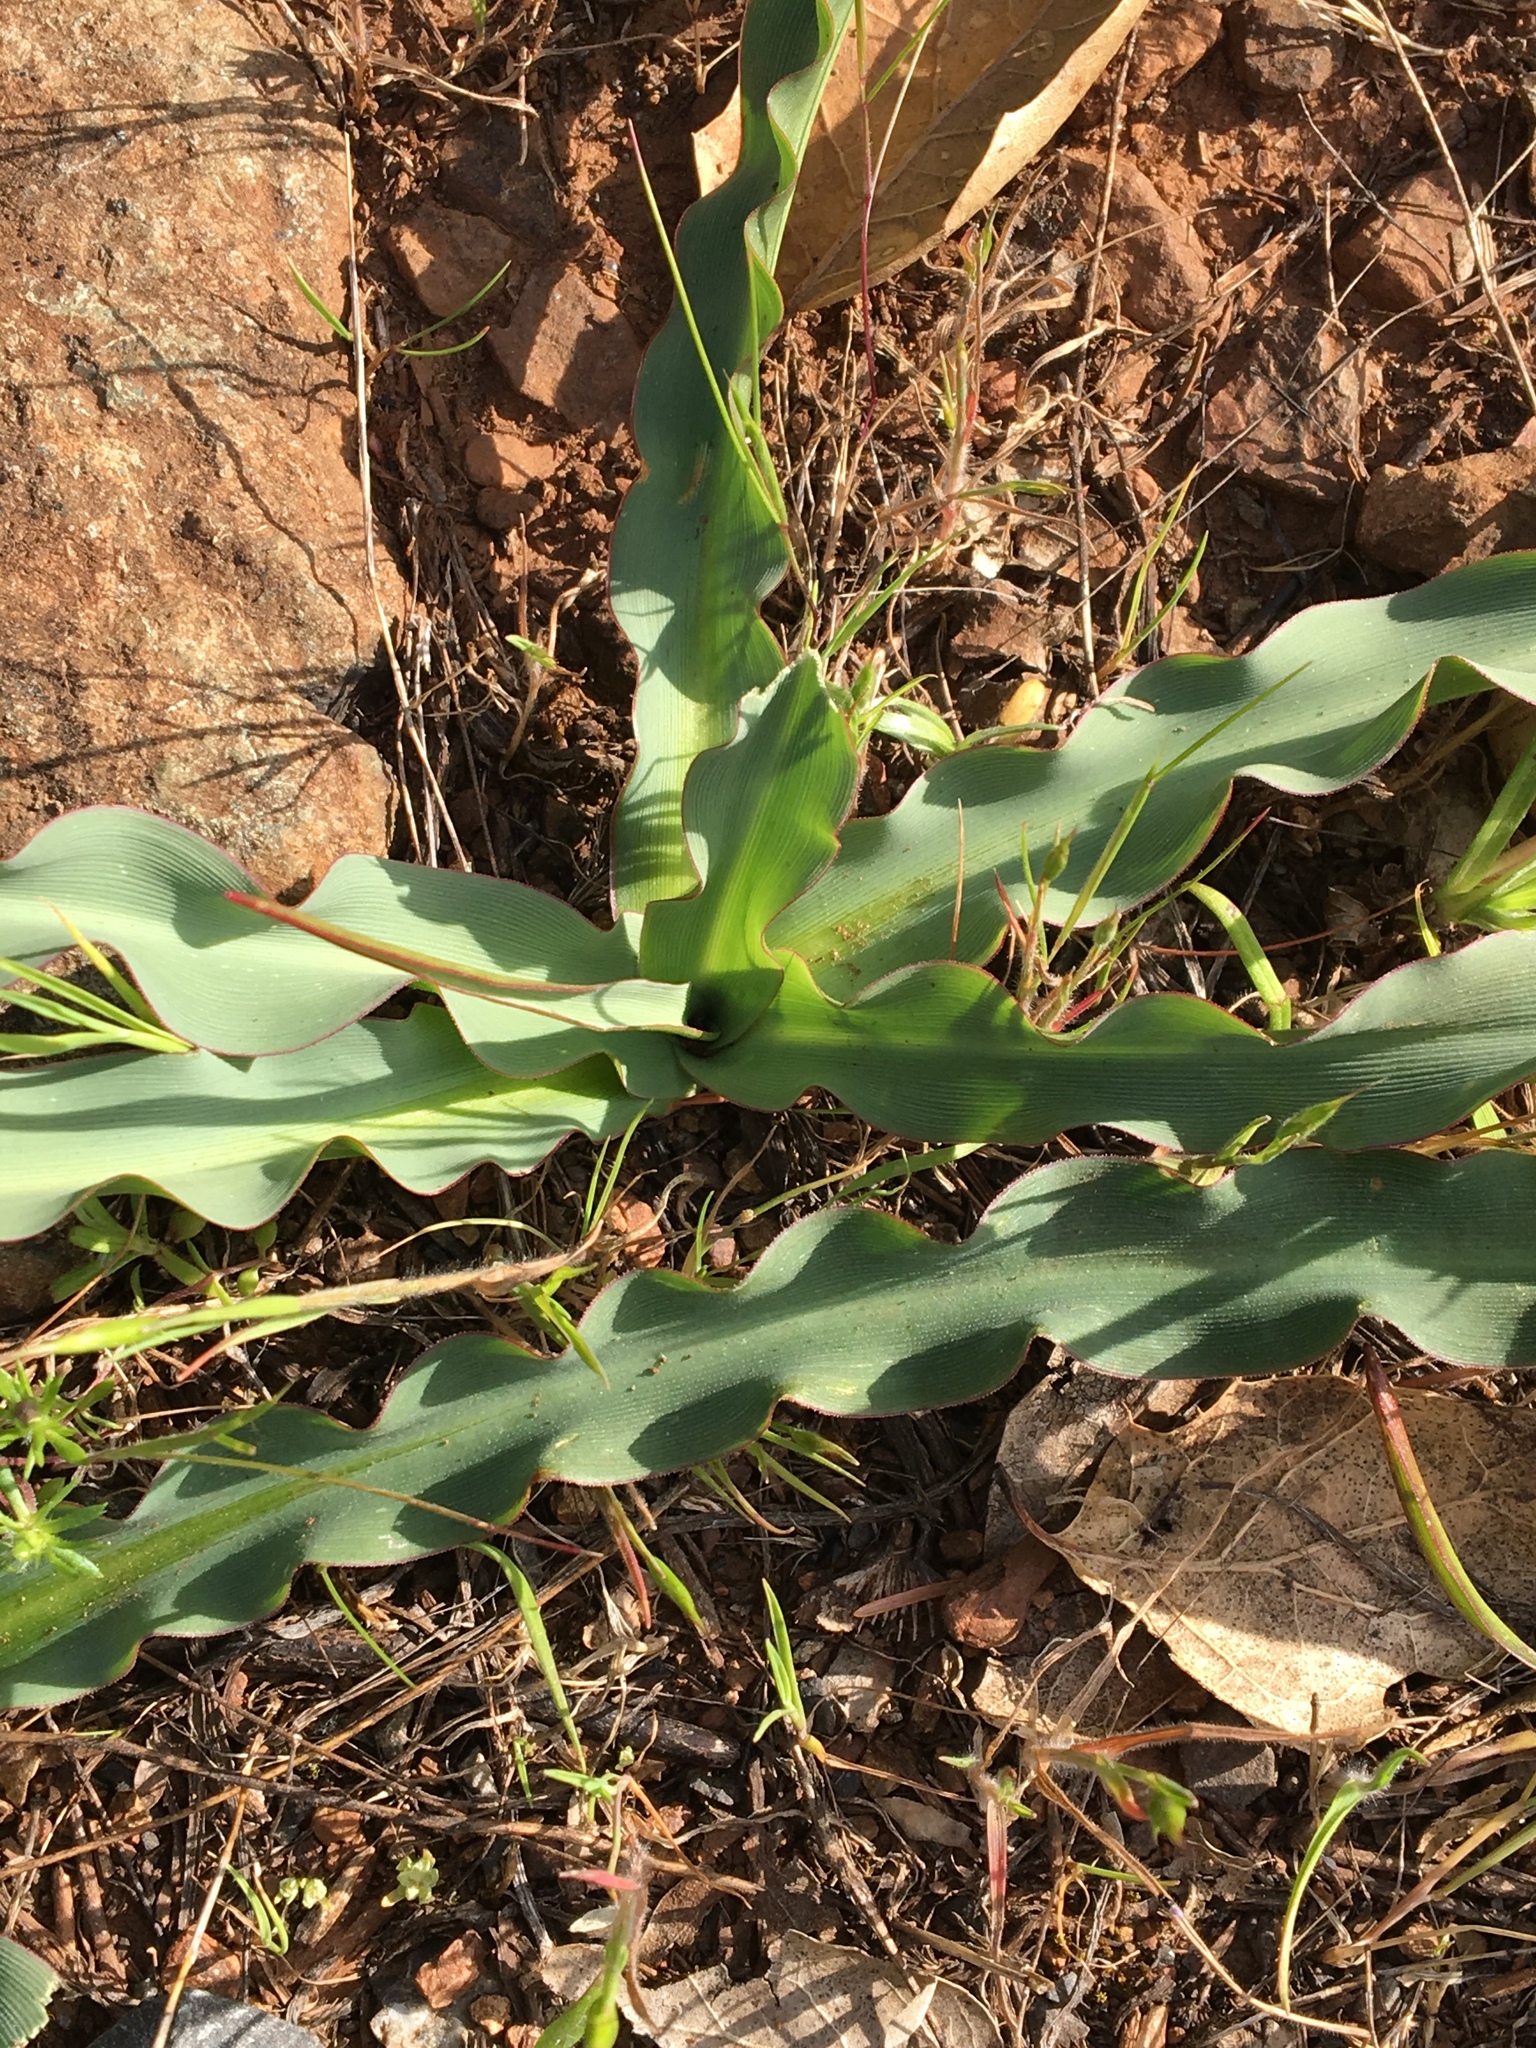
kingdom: Plantae
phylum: Tracheophyta
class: Liliopsida
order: Asparagales
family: Asparagaceae
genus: Chlorogalum
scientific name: Chlorogalum pomeridianum
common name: Amole
